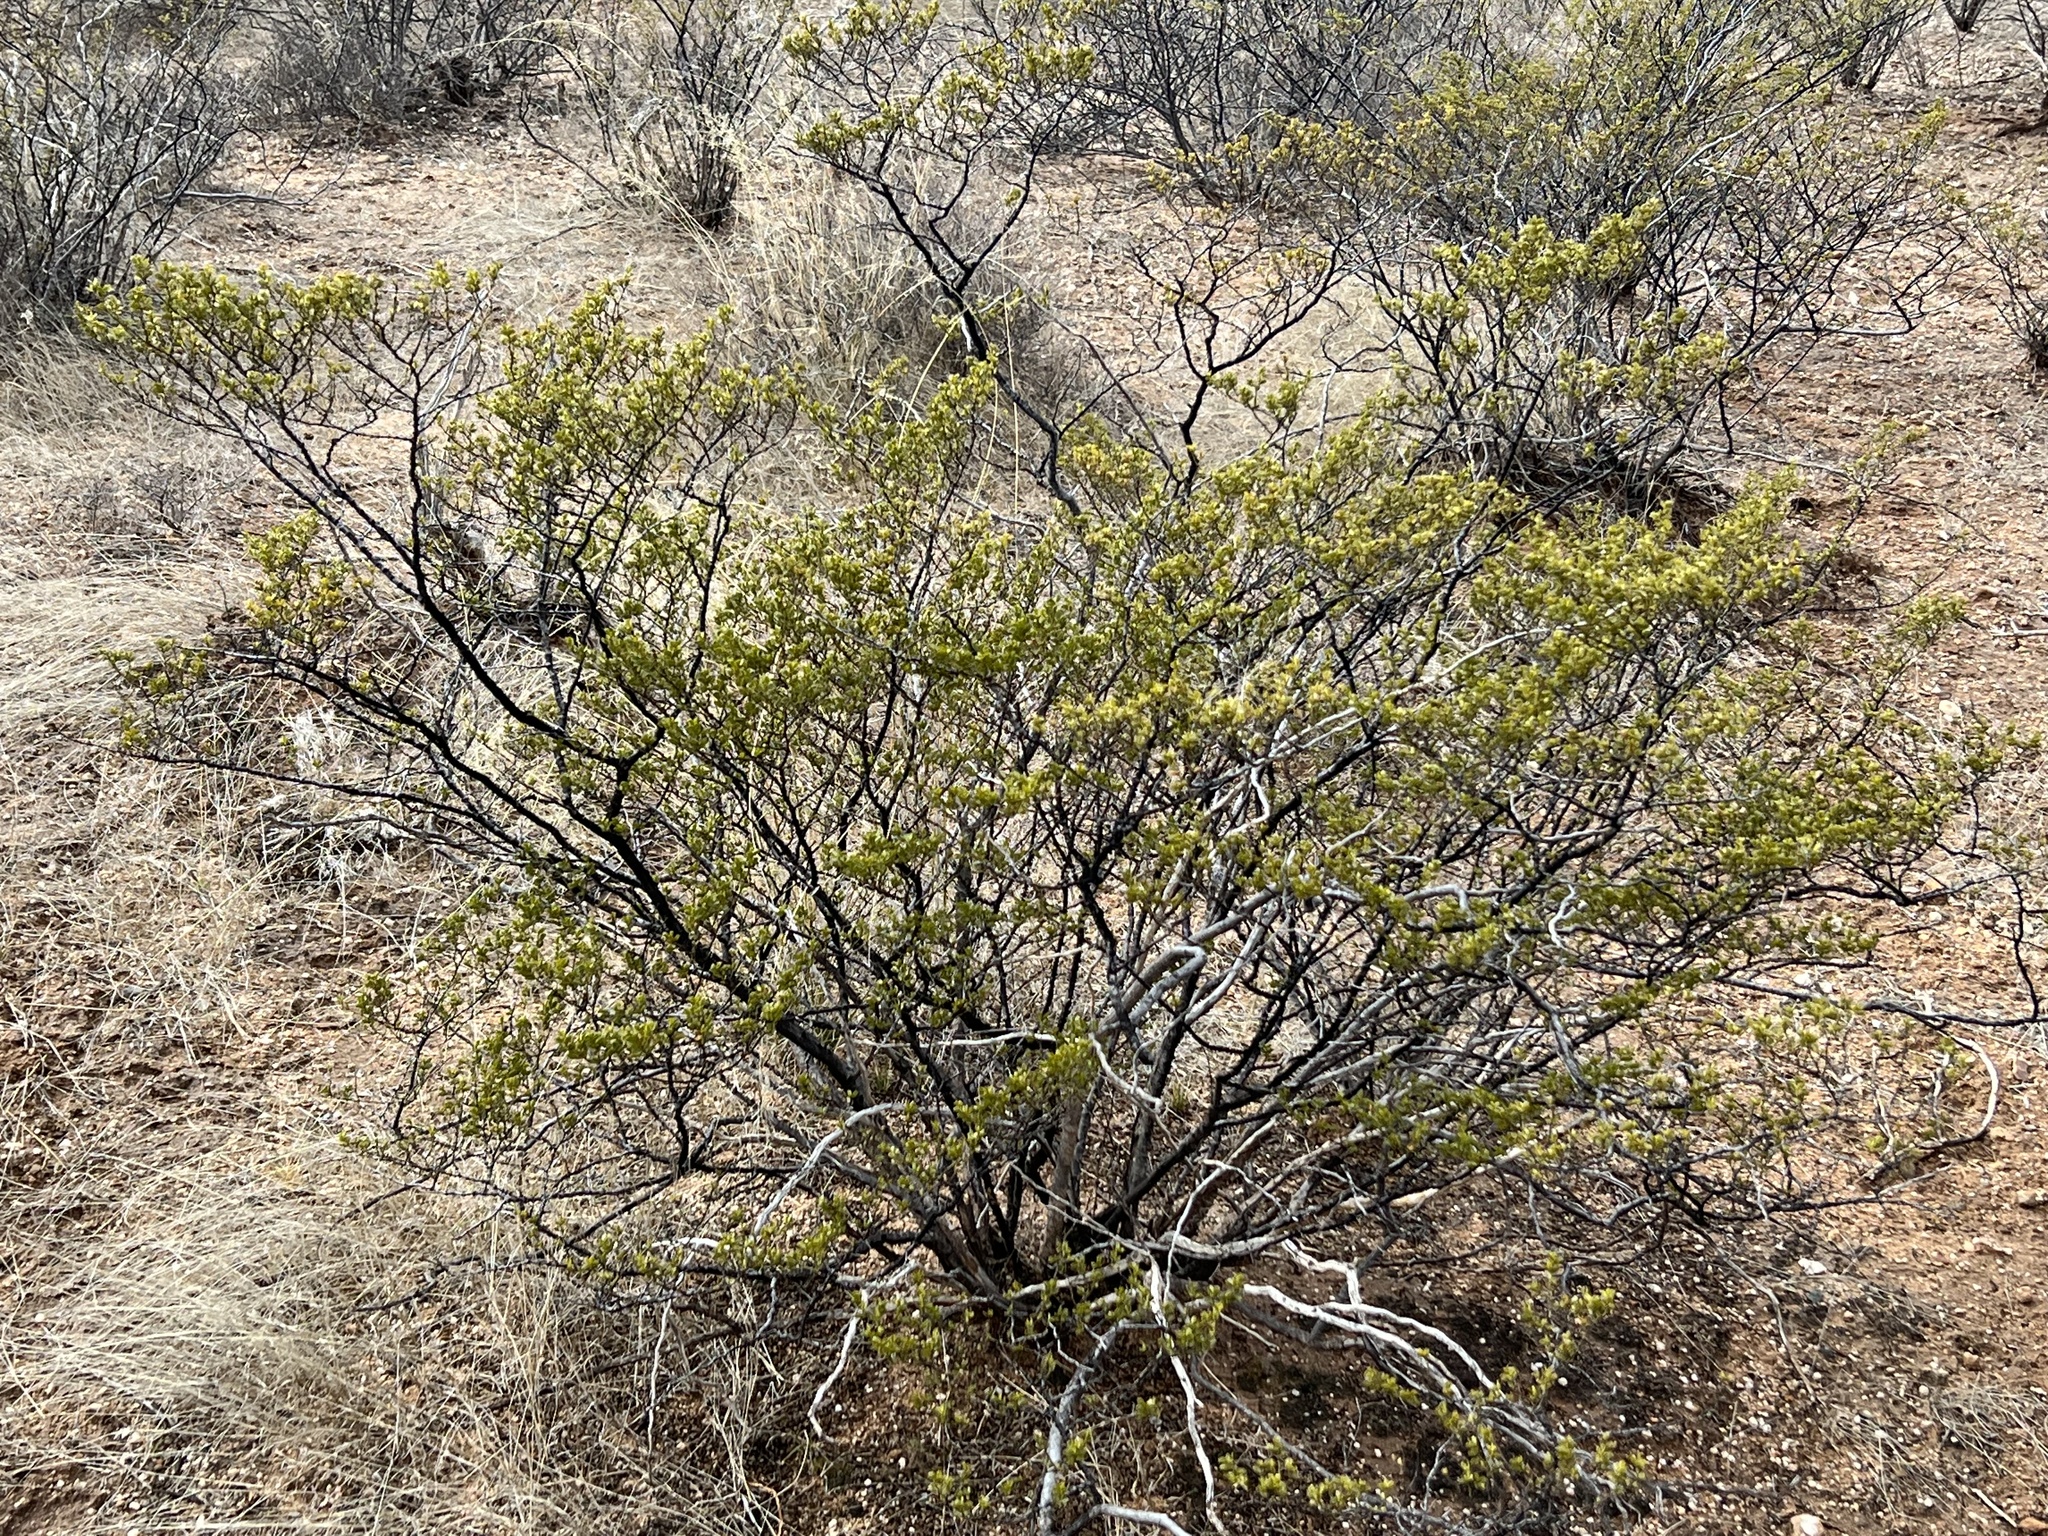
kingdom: Plantae
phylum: Tracheophyta
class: Magnoliopsida
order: Zygophyllales
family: Zygophyllaceae
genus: Larrea
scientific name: Larrea tridentata
